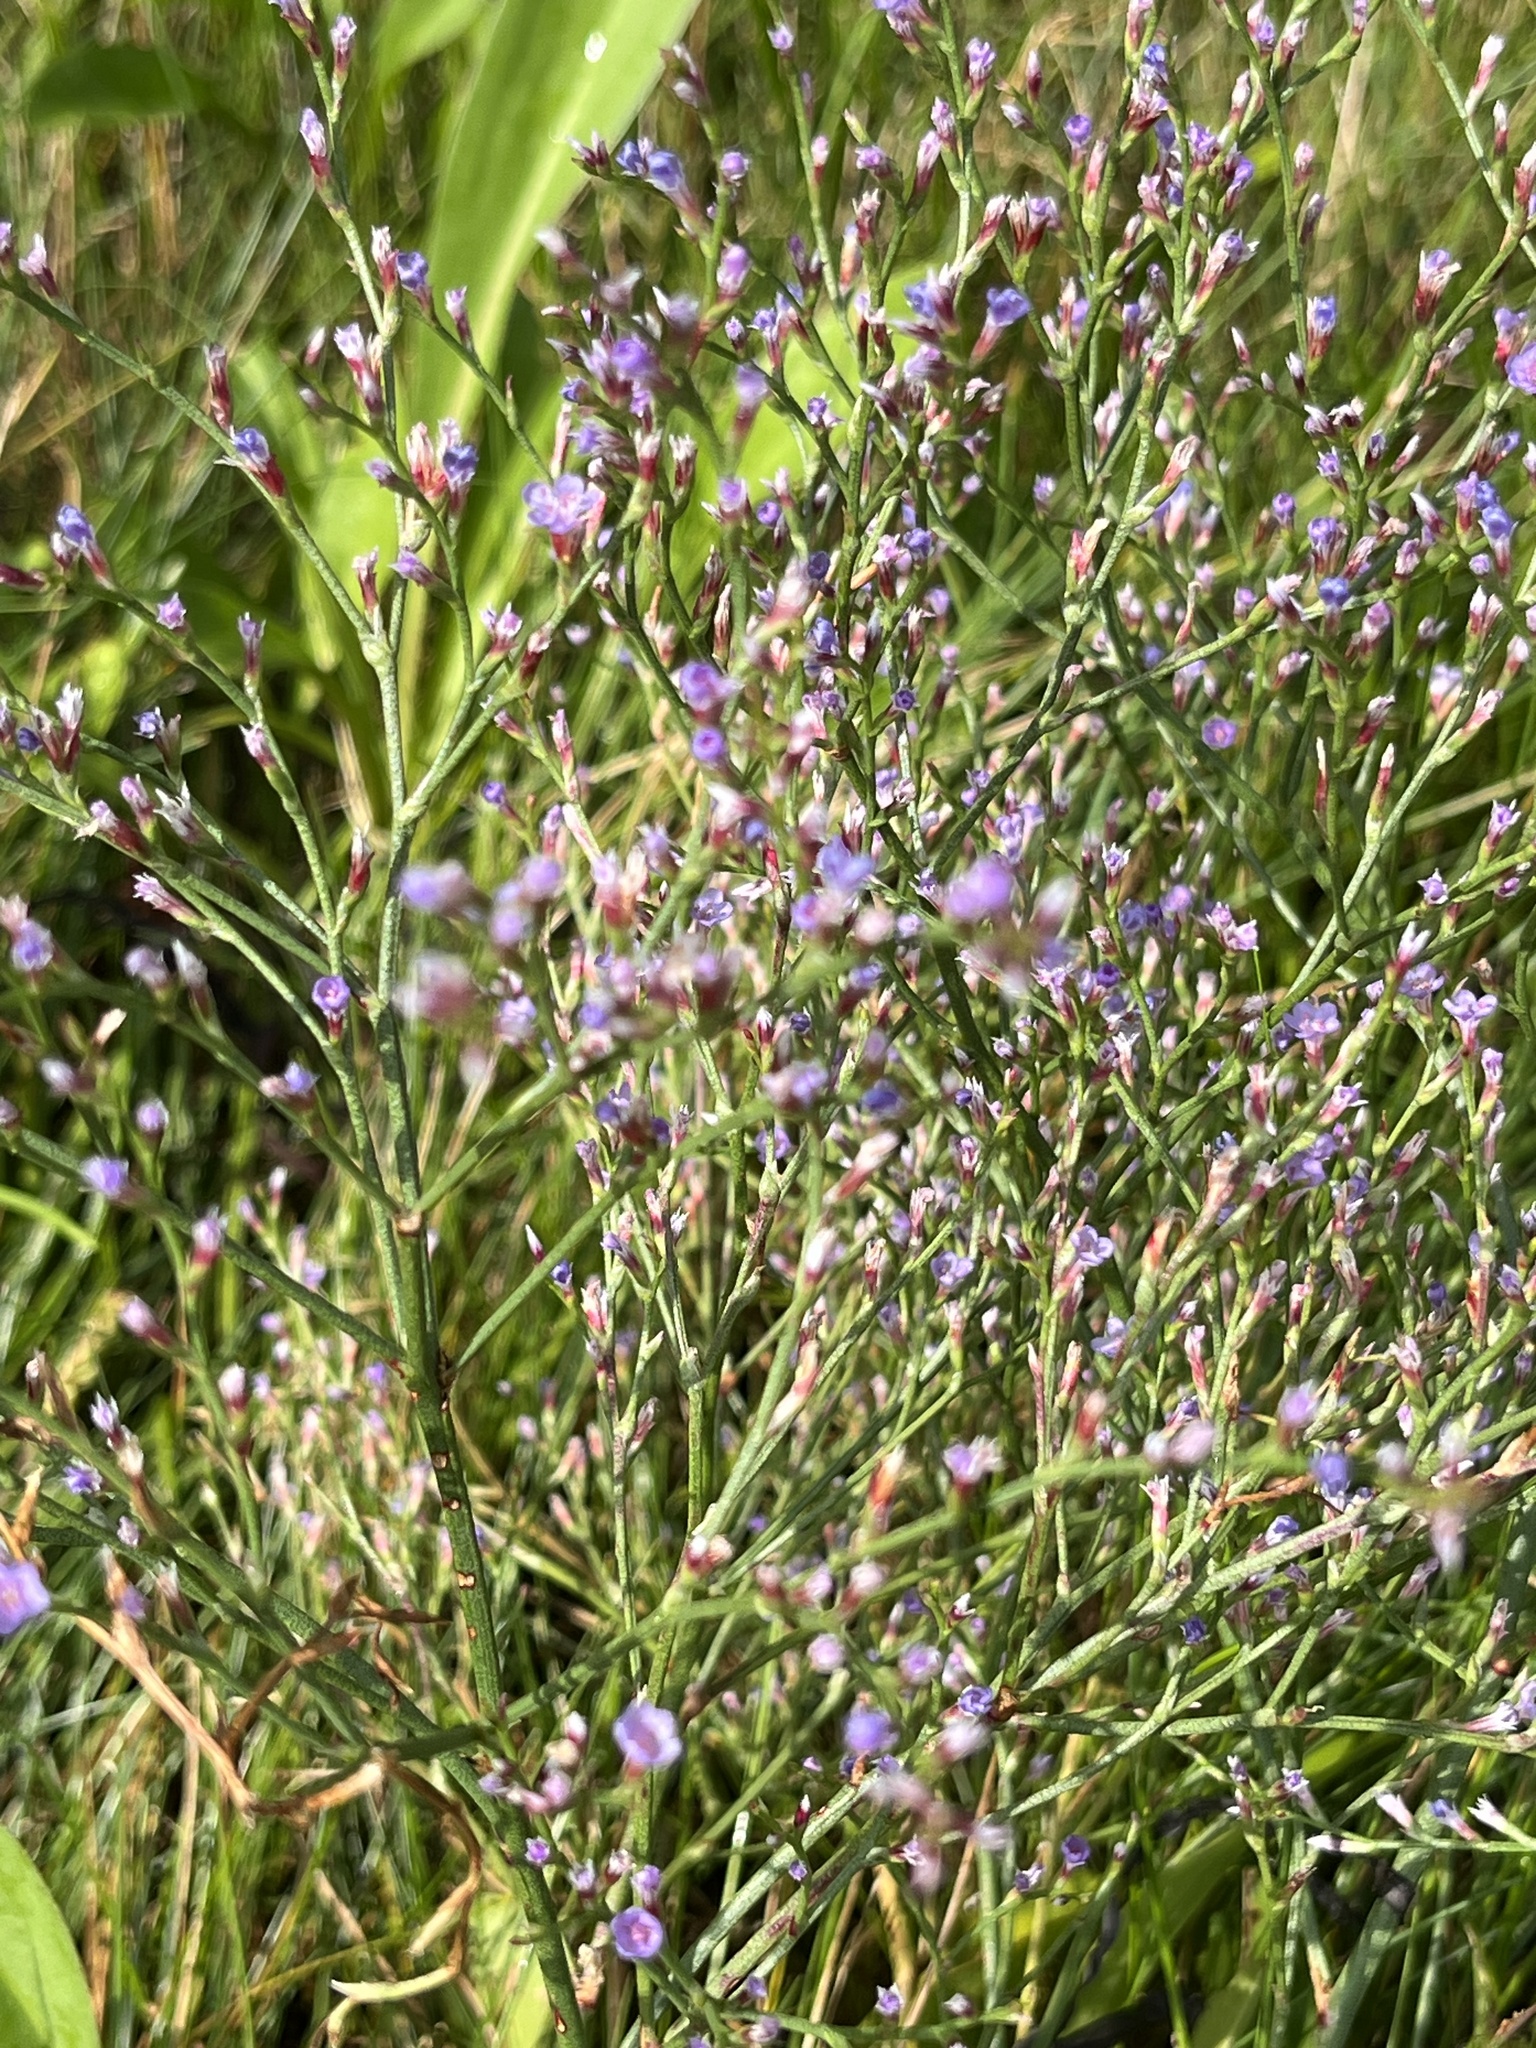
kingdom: Plantae
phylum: Tracheophyta
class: Magnoliopsida
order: Caryophyllales
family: Plumbaginaceae
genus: Limonium
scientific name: Limonium carolinianum
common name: Carolina sea lavender
